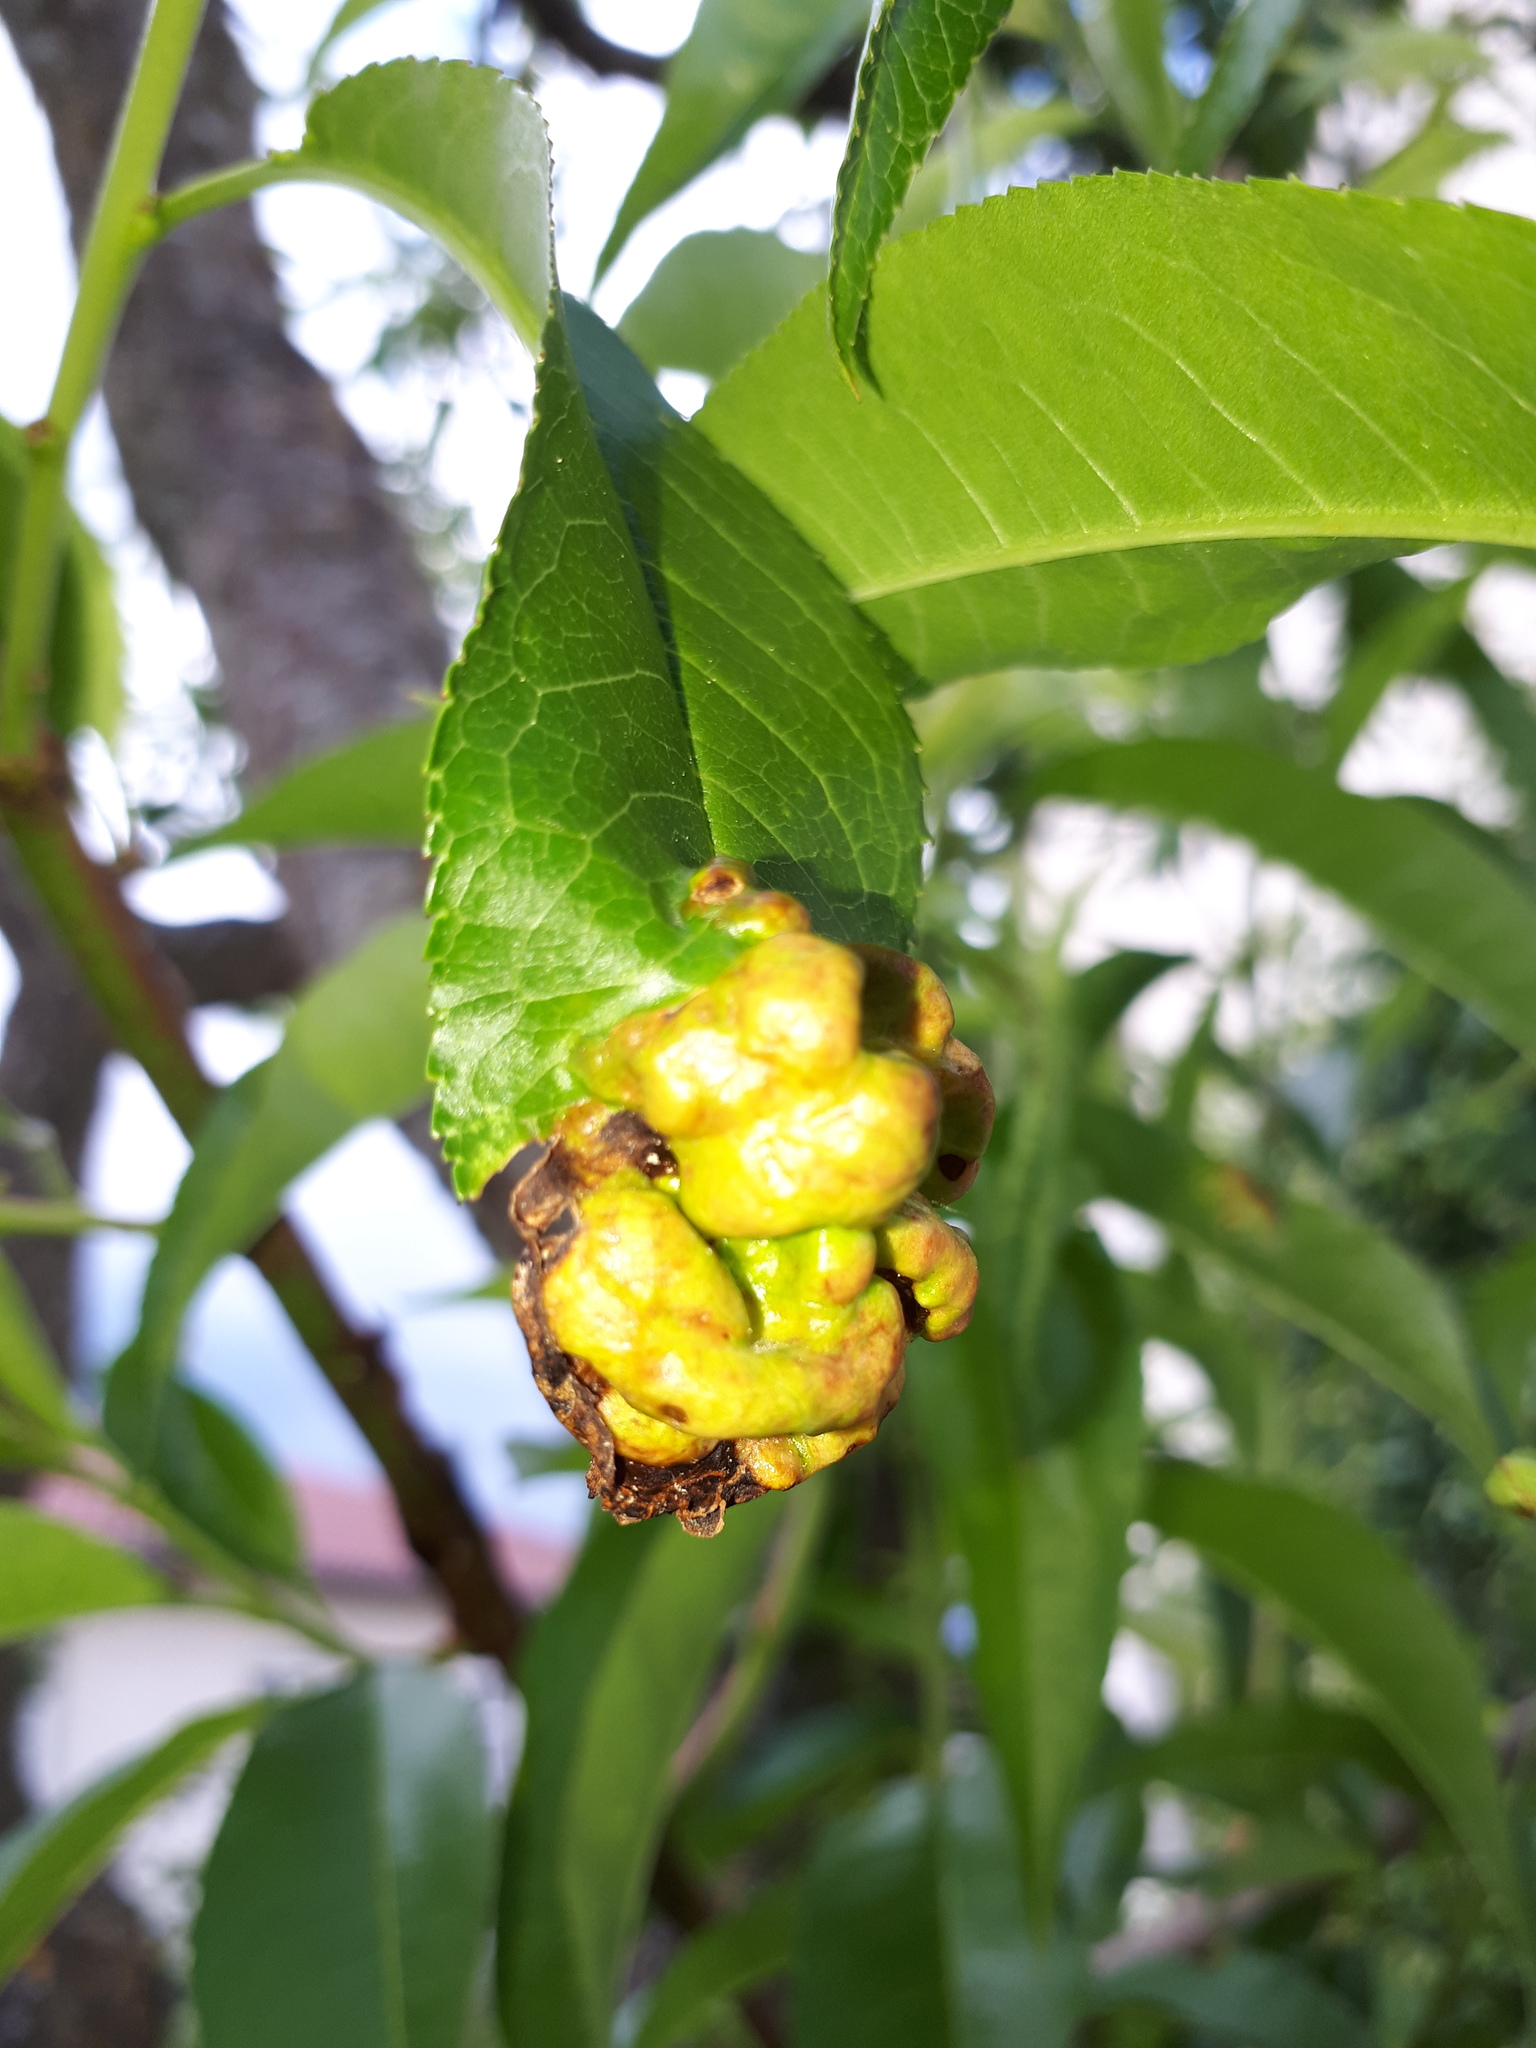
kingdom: Fungi
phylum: Ascomycota
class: Taphrinomycetes
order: Taphrinales
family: Taphrinaceae
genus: Taphrina
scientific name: Taphrina deformans
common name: Peach leaf curl
